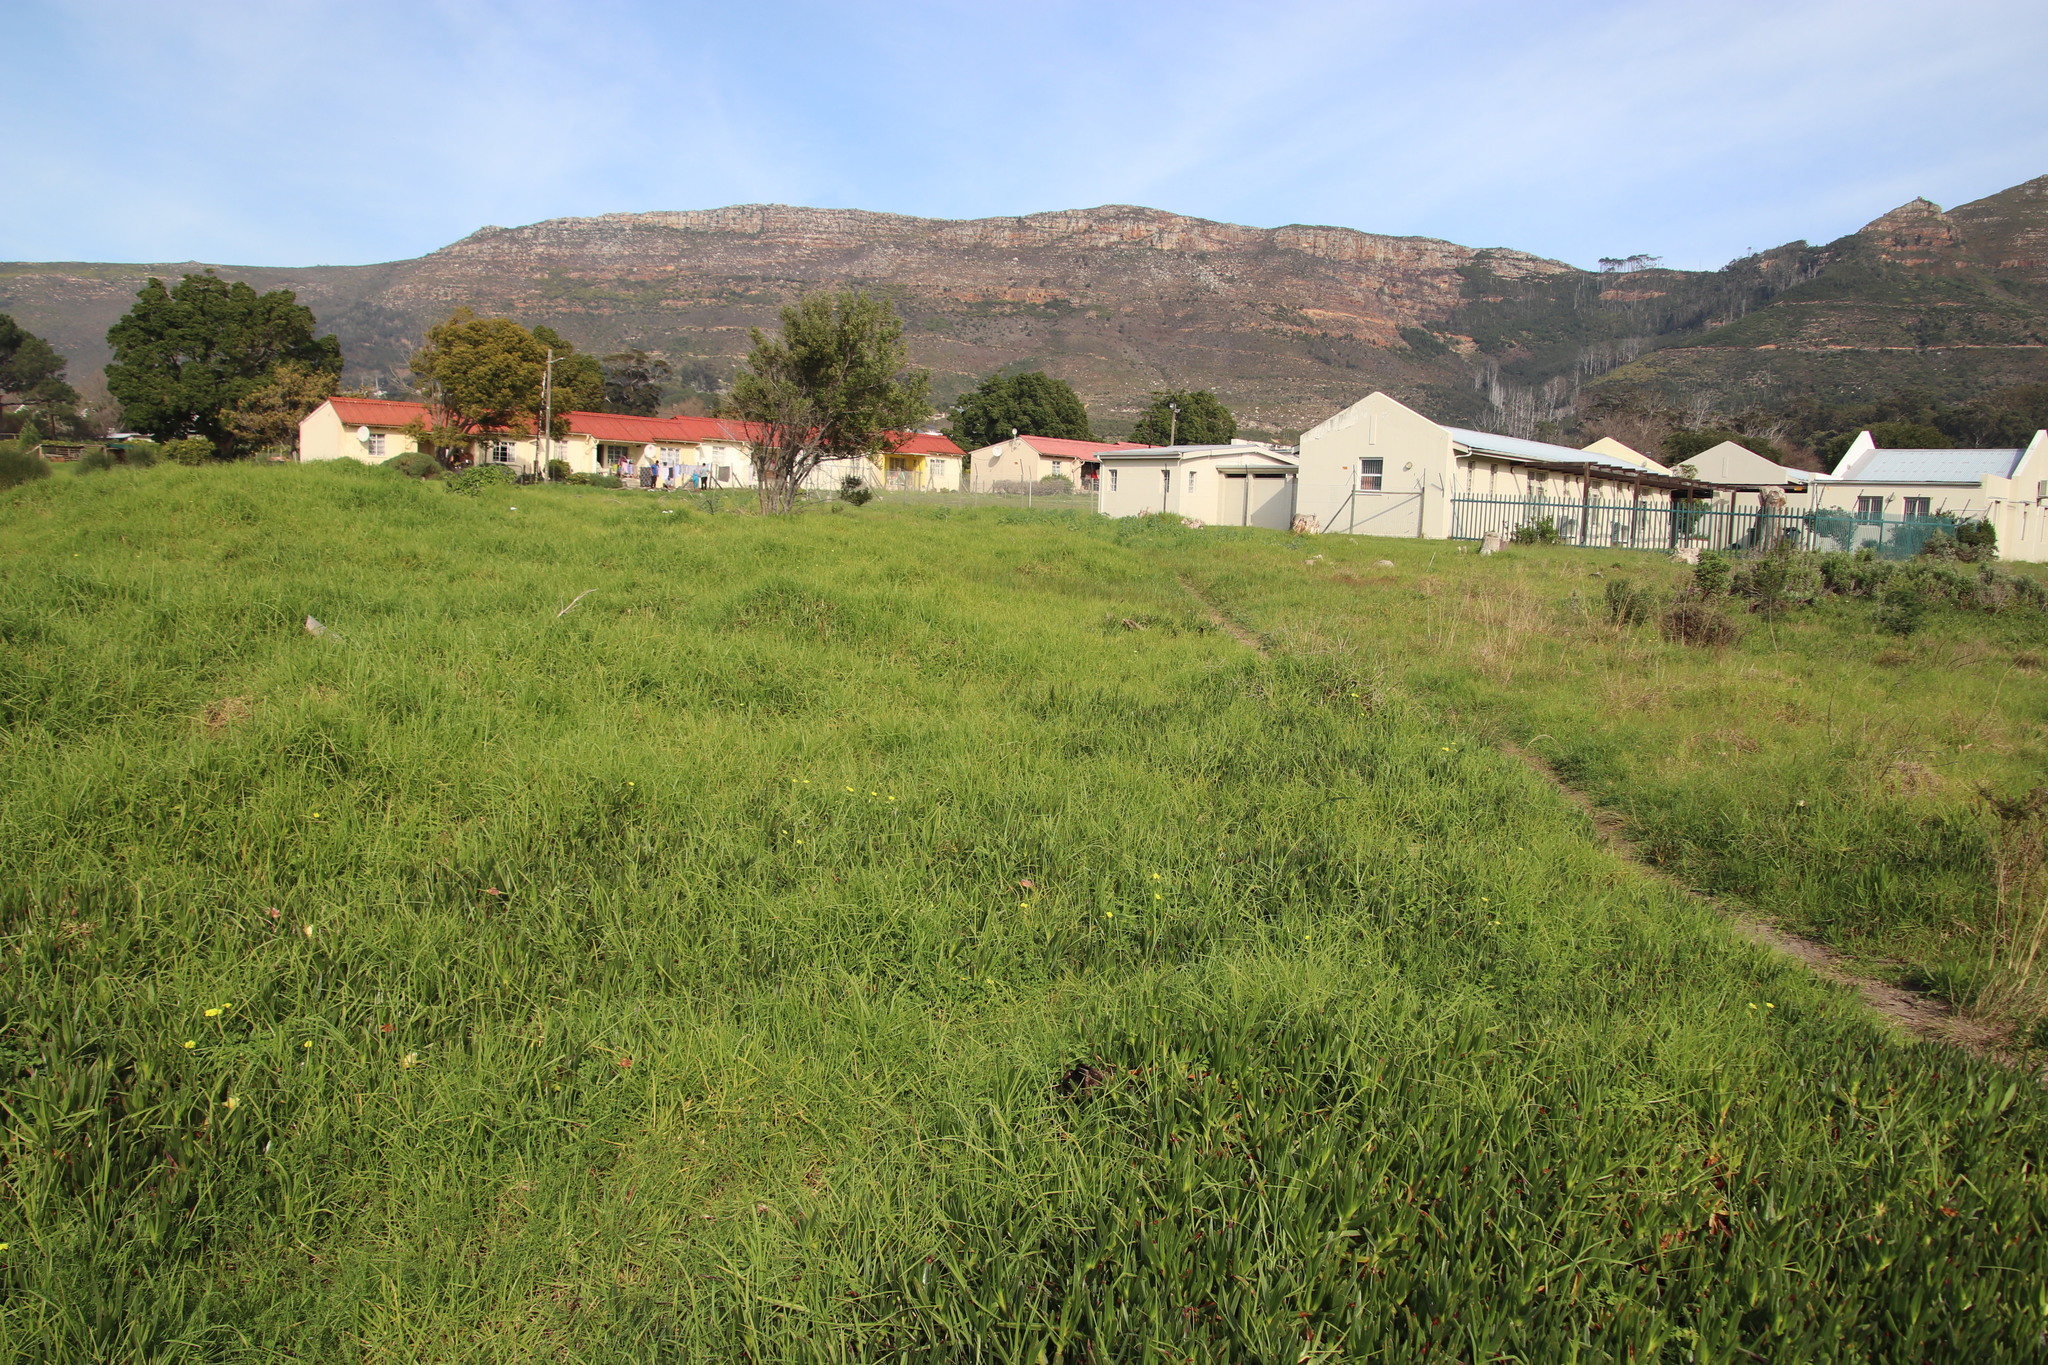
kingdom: Plantae
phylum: Tracheophyta
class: Liliopsida
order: Poales
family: Poaceae
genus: Cenchrus
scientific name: Cenchrus clandestinus
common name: Kikuyugrass
